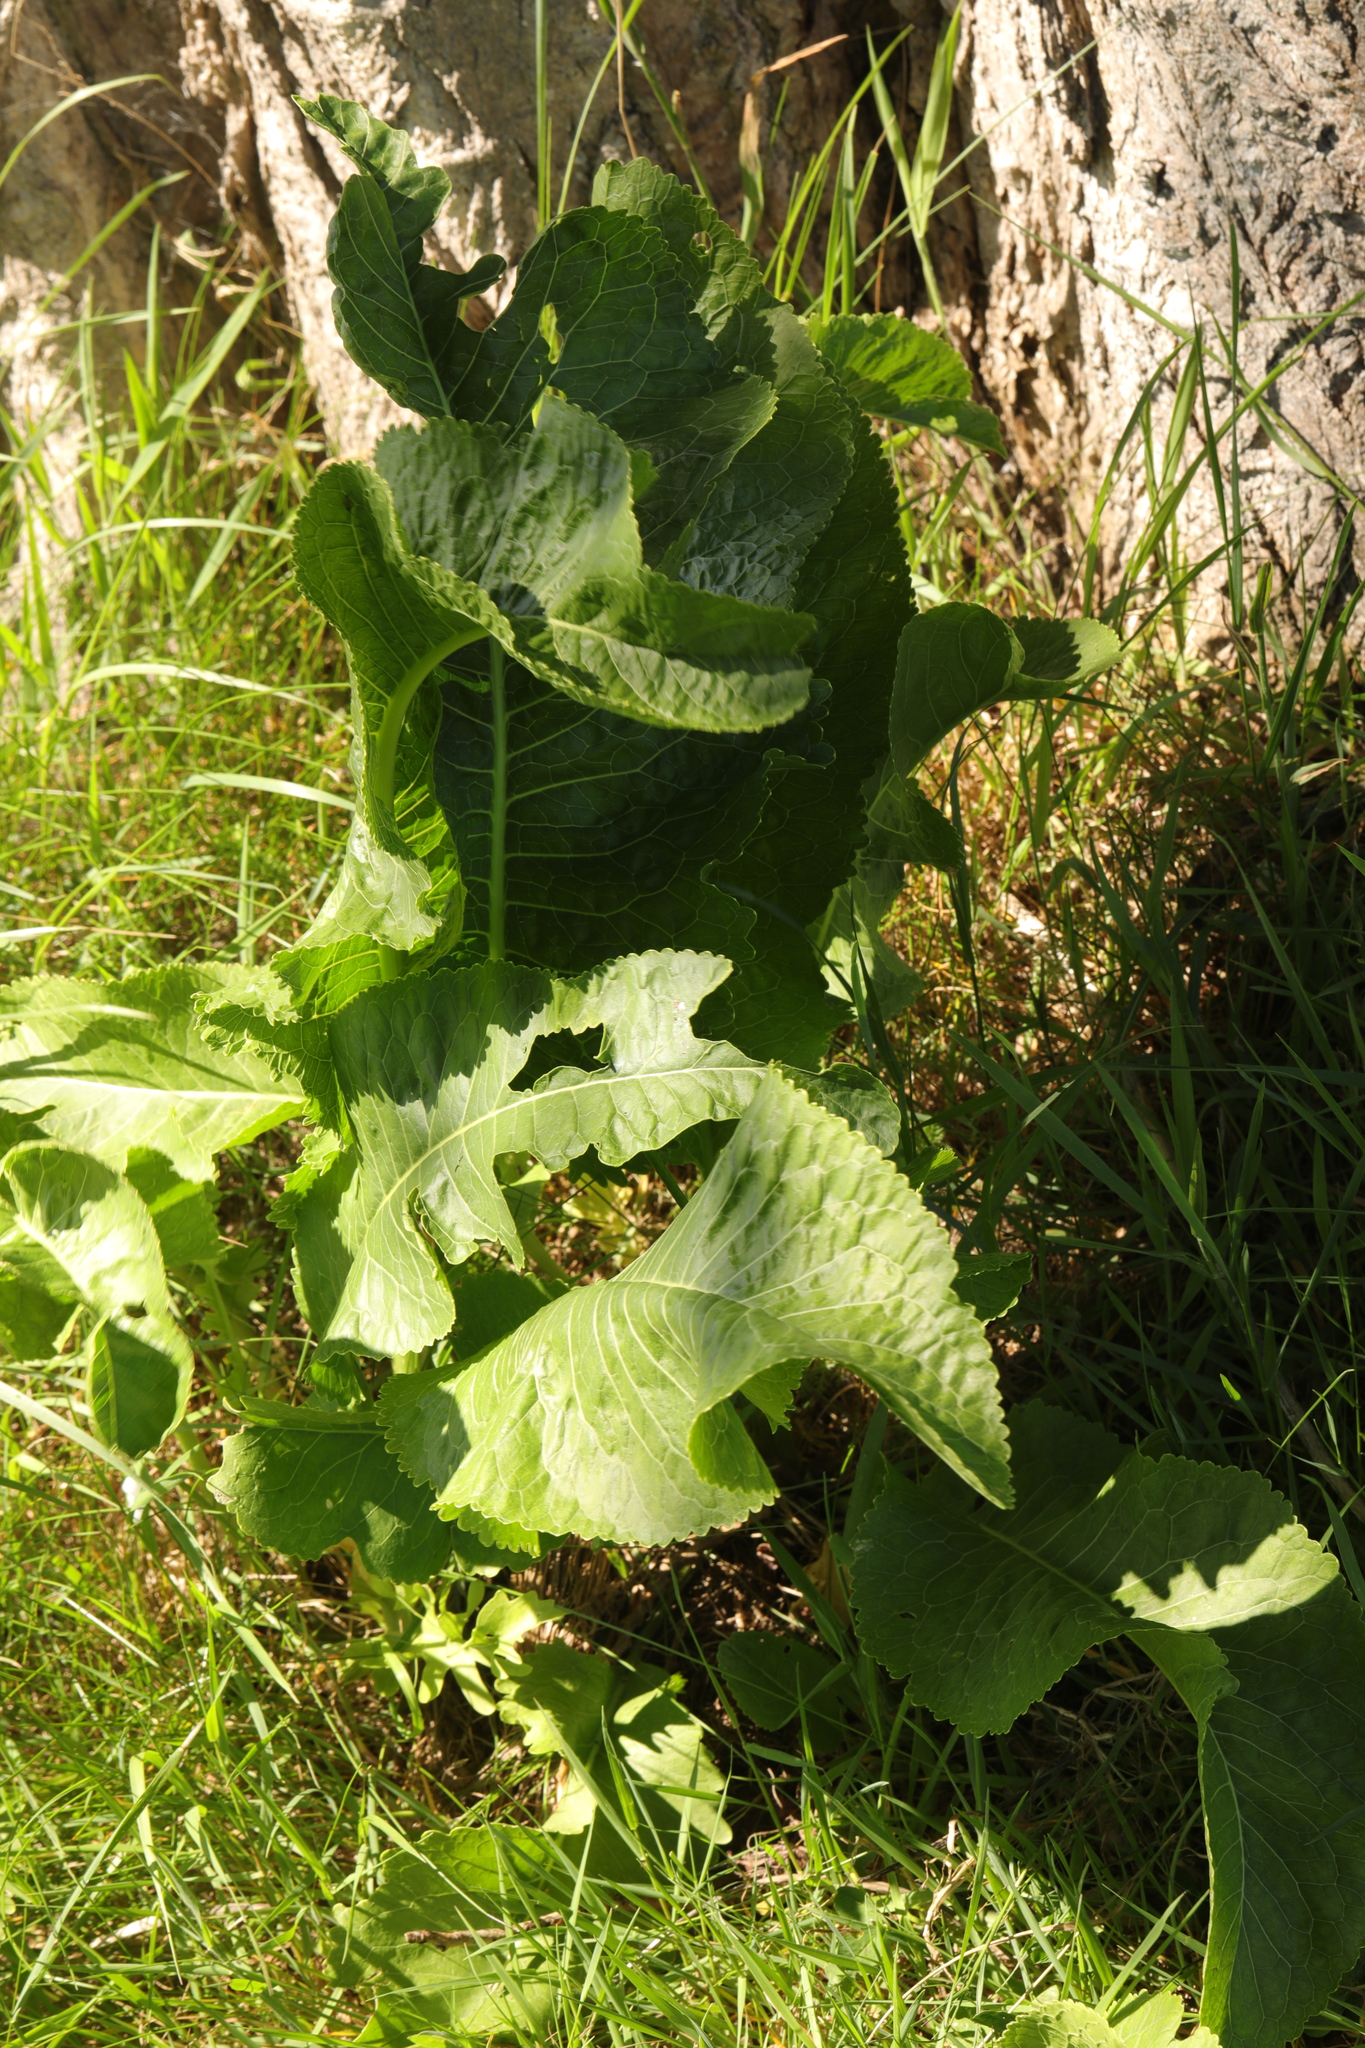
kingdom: Plantae
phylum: Tracheophyta
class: Magnoliopsida
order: Brassicales
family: Brassicaceae
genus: Armoracia
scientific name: Armoracia rusticana
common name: Horseradish
